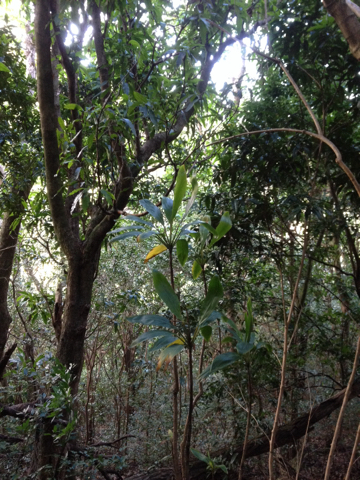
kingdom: Plantae
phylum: Tracheophyta
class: Liliopsida
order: Asparagales
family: Asparagaceae
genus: Cordyline
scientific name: Cordyline fruticosa
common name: Good-luck-plant
